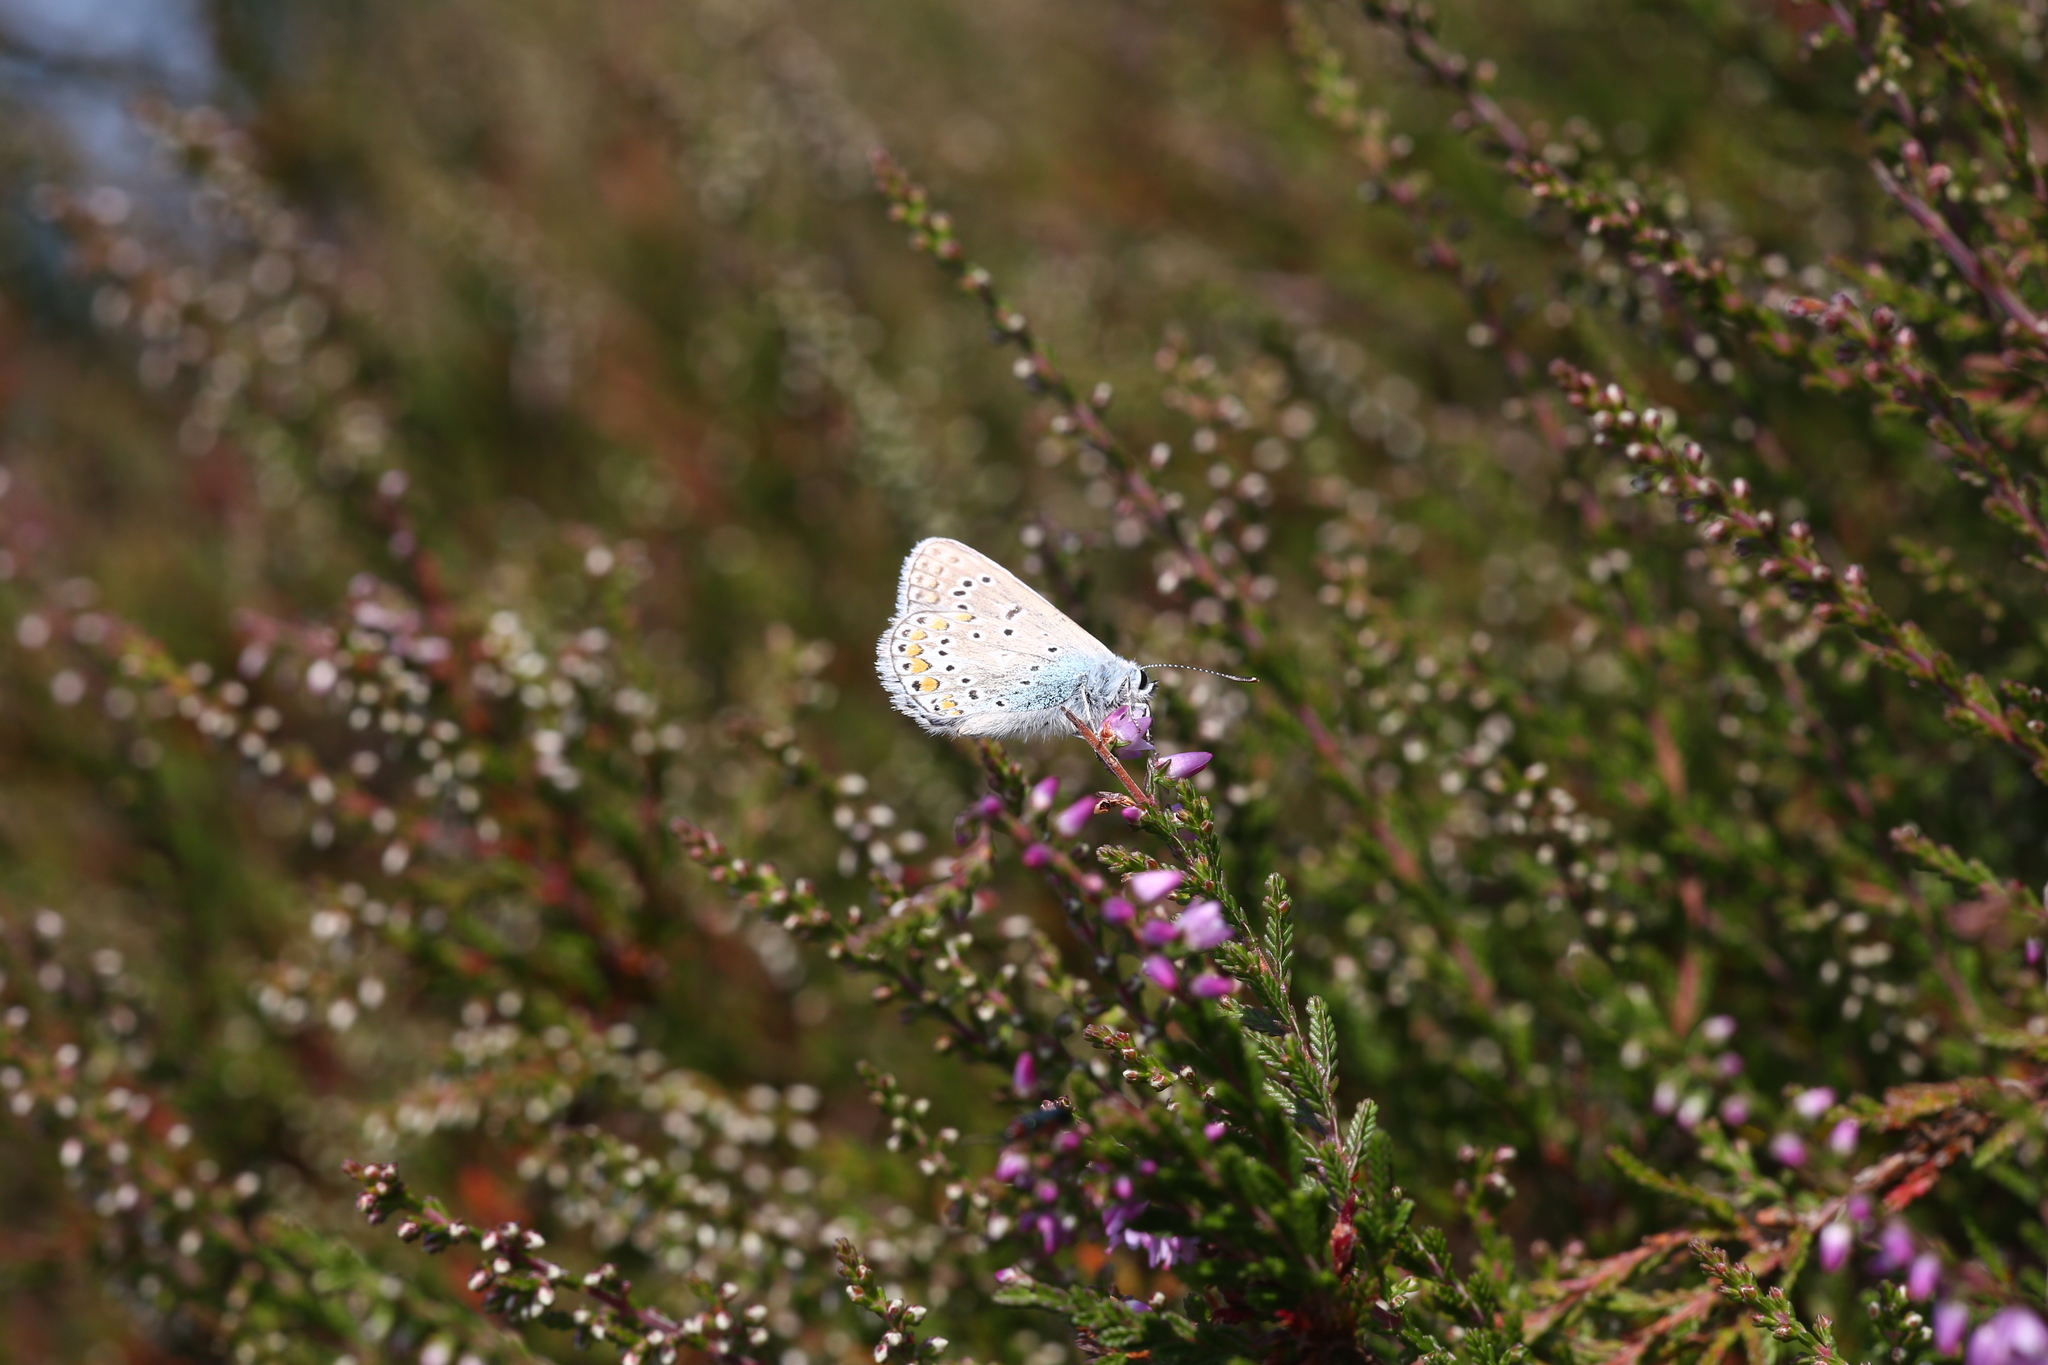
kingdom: Animalia
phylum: Arthropoda
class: Insecta
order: Lepidoptera
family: Lycaenidae
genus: Polyommatus
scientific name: Polyommatus icarus
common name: Common blue
